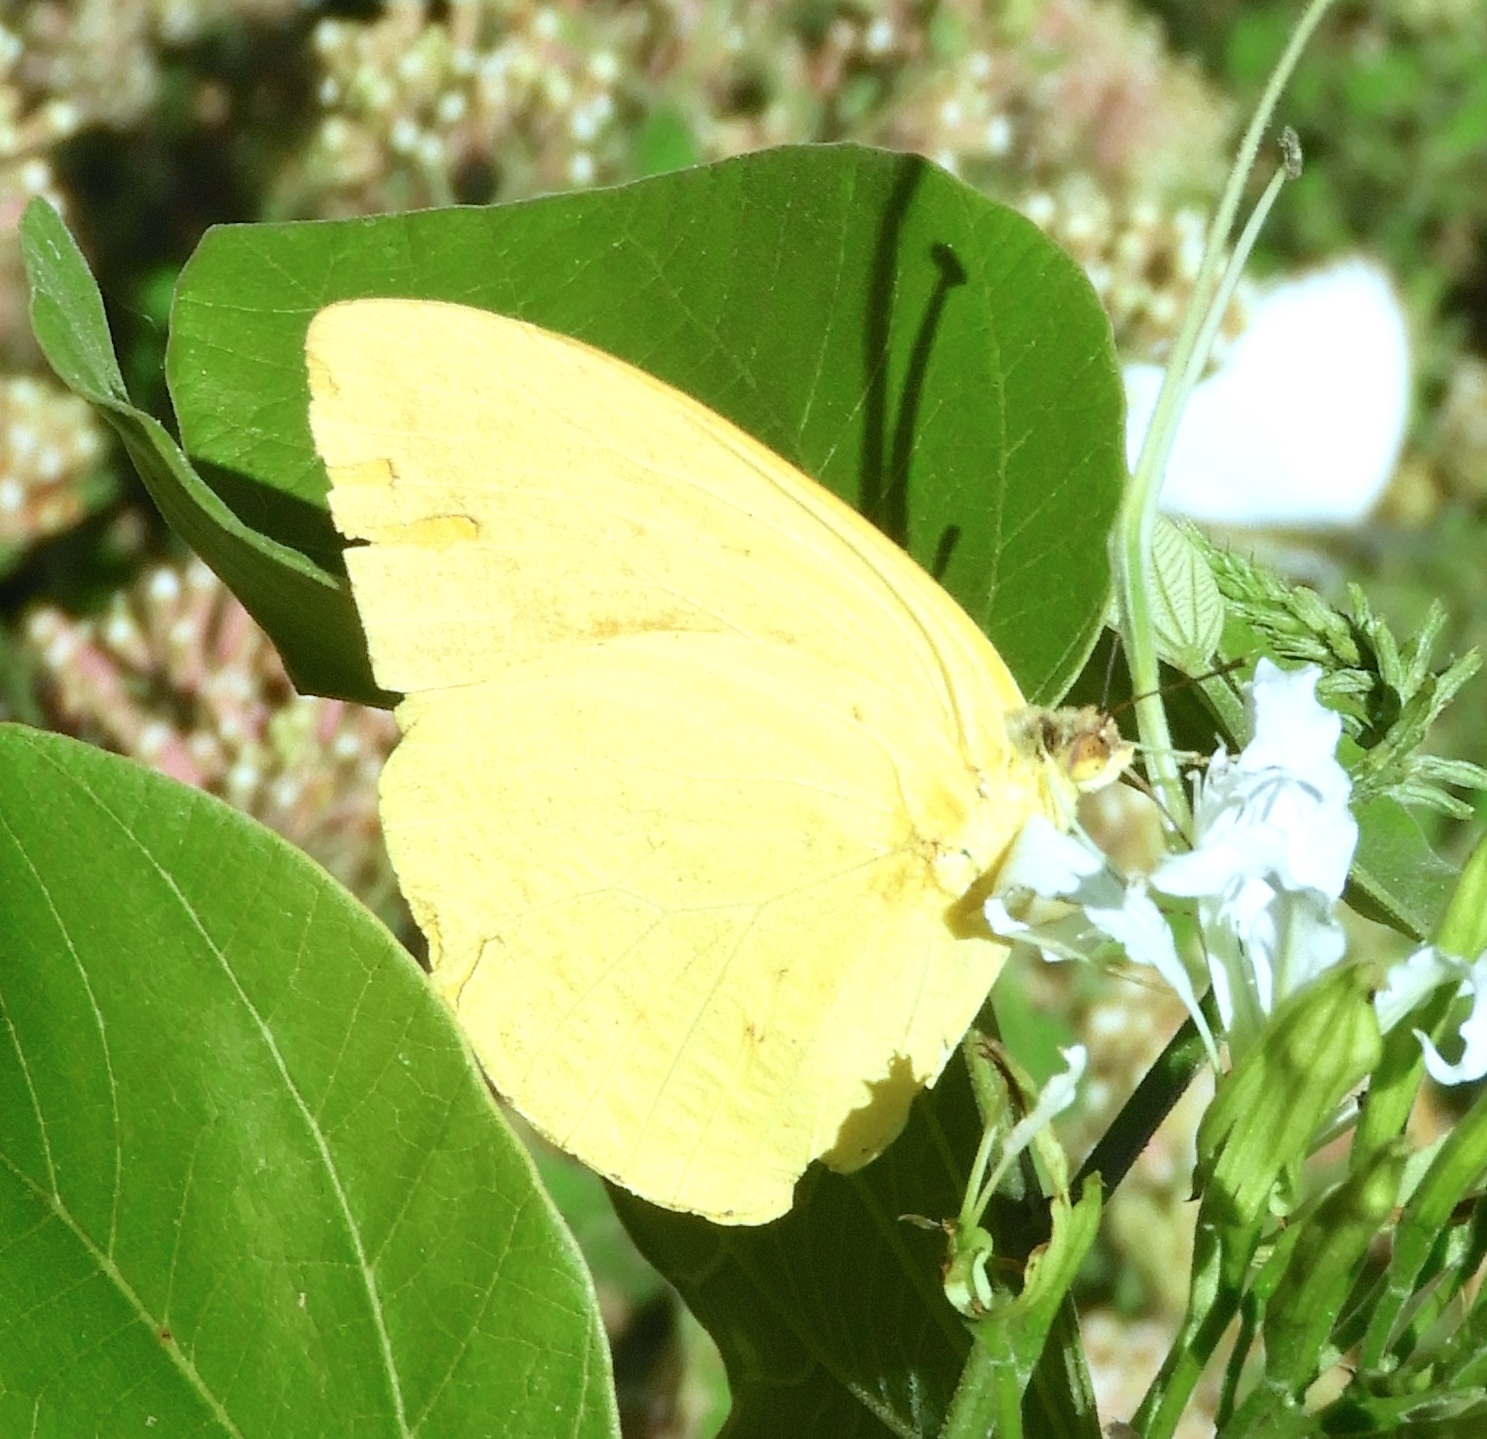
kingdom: Animalia
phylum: Arthropoda
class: Insecta
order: Lepidoptera
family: Pieridae
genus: Phoebis
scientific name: Phoebis agarithe
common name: Large orange sulphur
